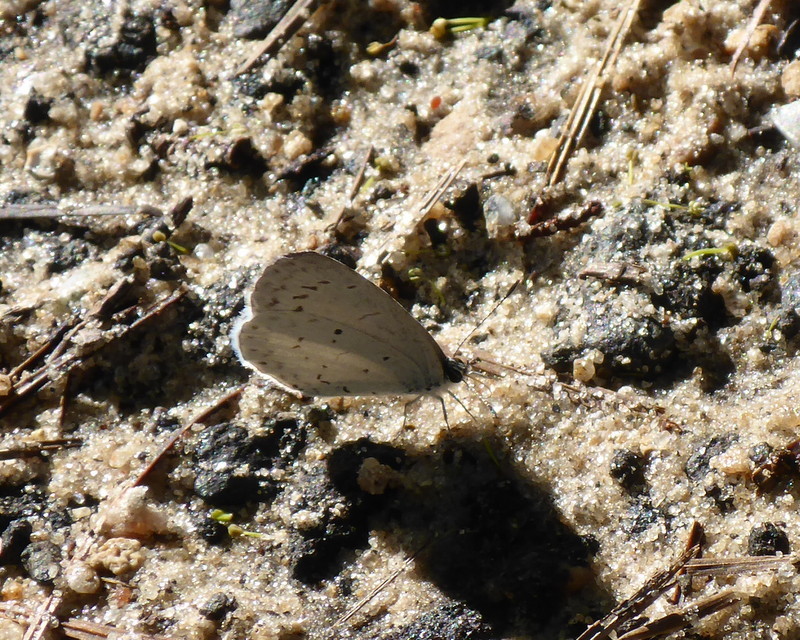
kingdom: Animalia
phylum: Arthropoda
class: Insecta
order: Lepidoptera
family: Lycaenidae
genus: Cyaniris
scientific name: Cyaniris neglecta
